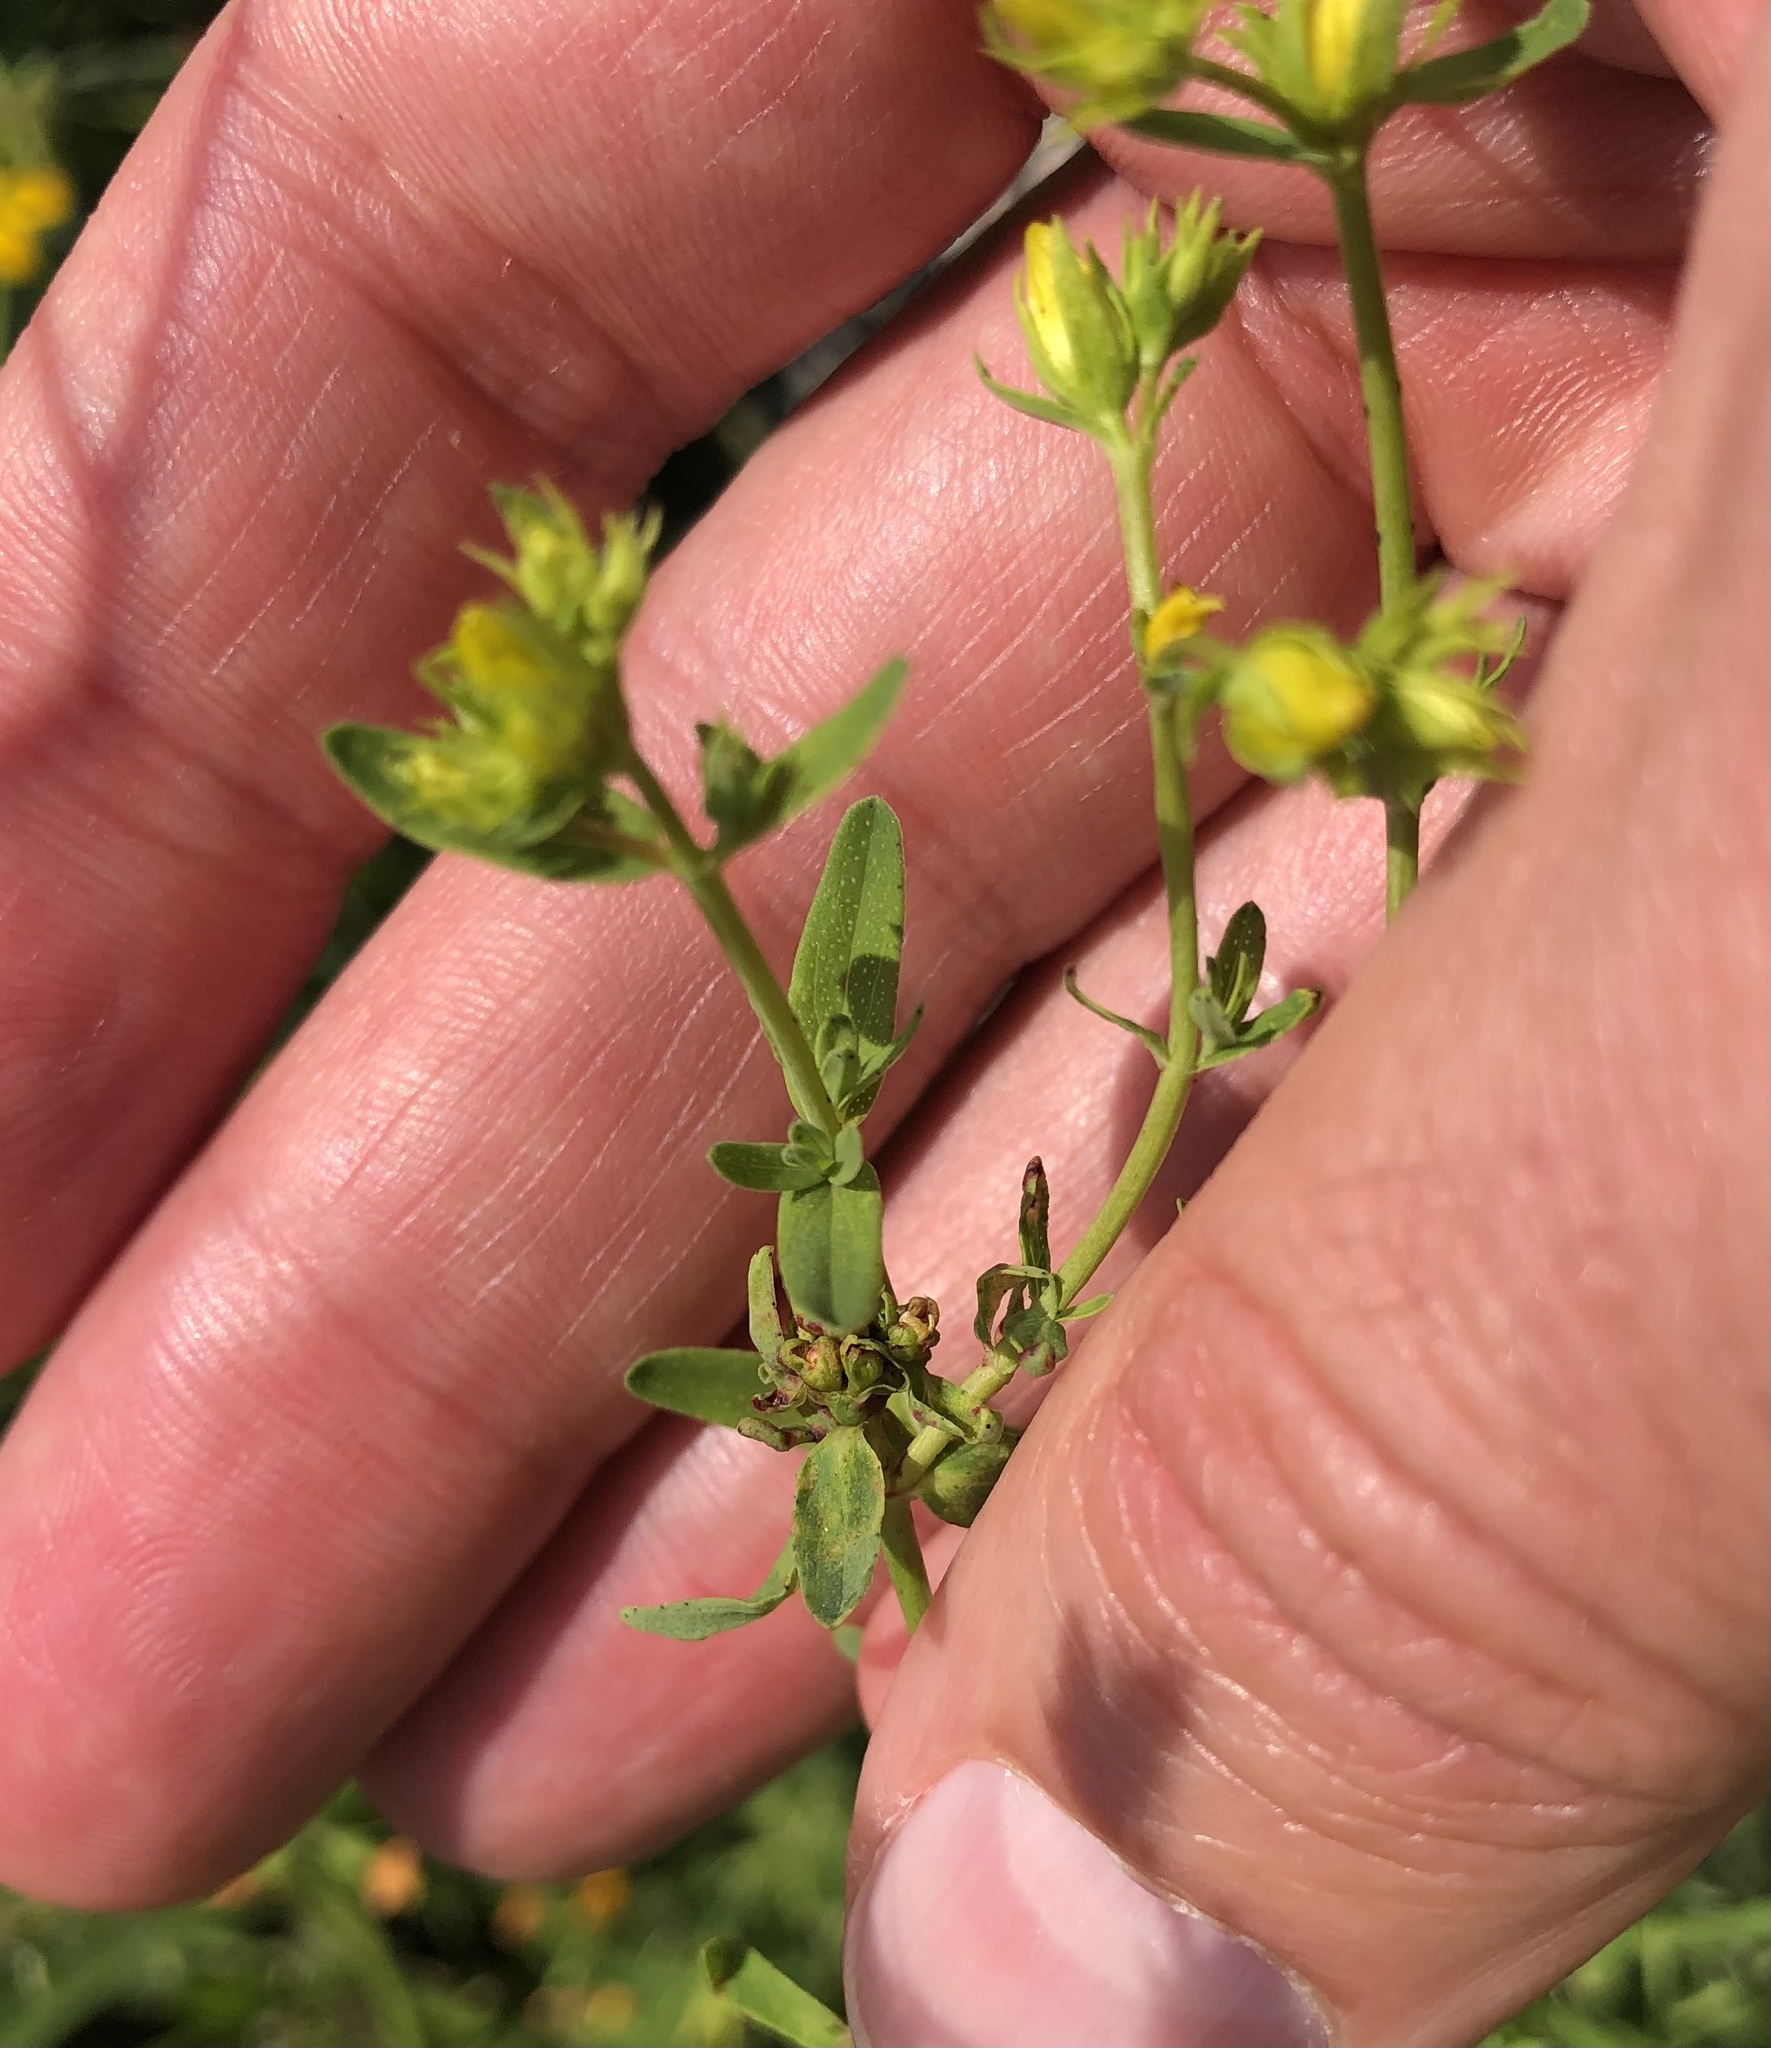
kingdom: Plantae
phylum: Tracheophyta
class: Magnoliopsida
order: Malpighiales
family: Hypericaceae
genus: Hypericum
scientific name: Hypericum perforatum
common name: Common st. johnswort
